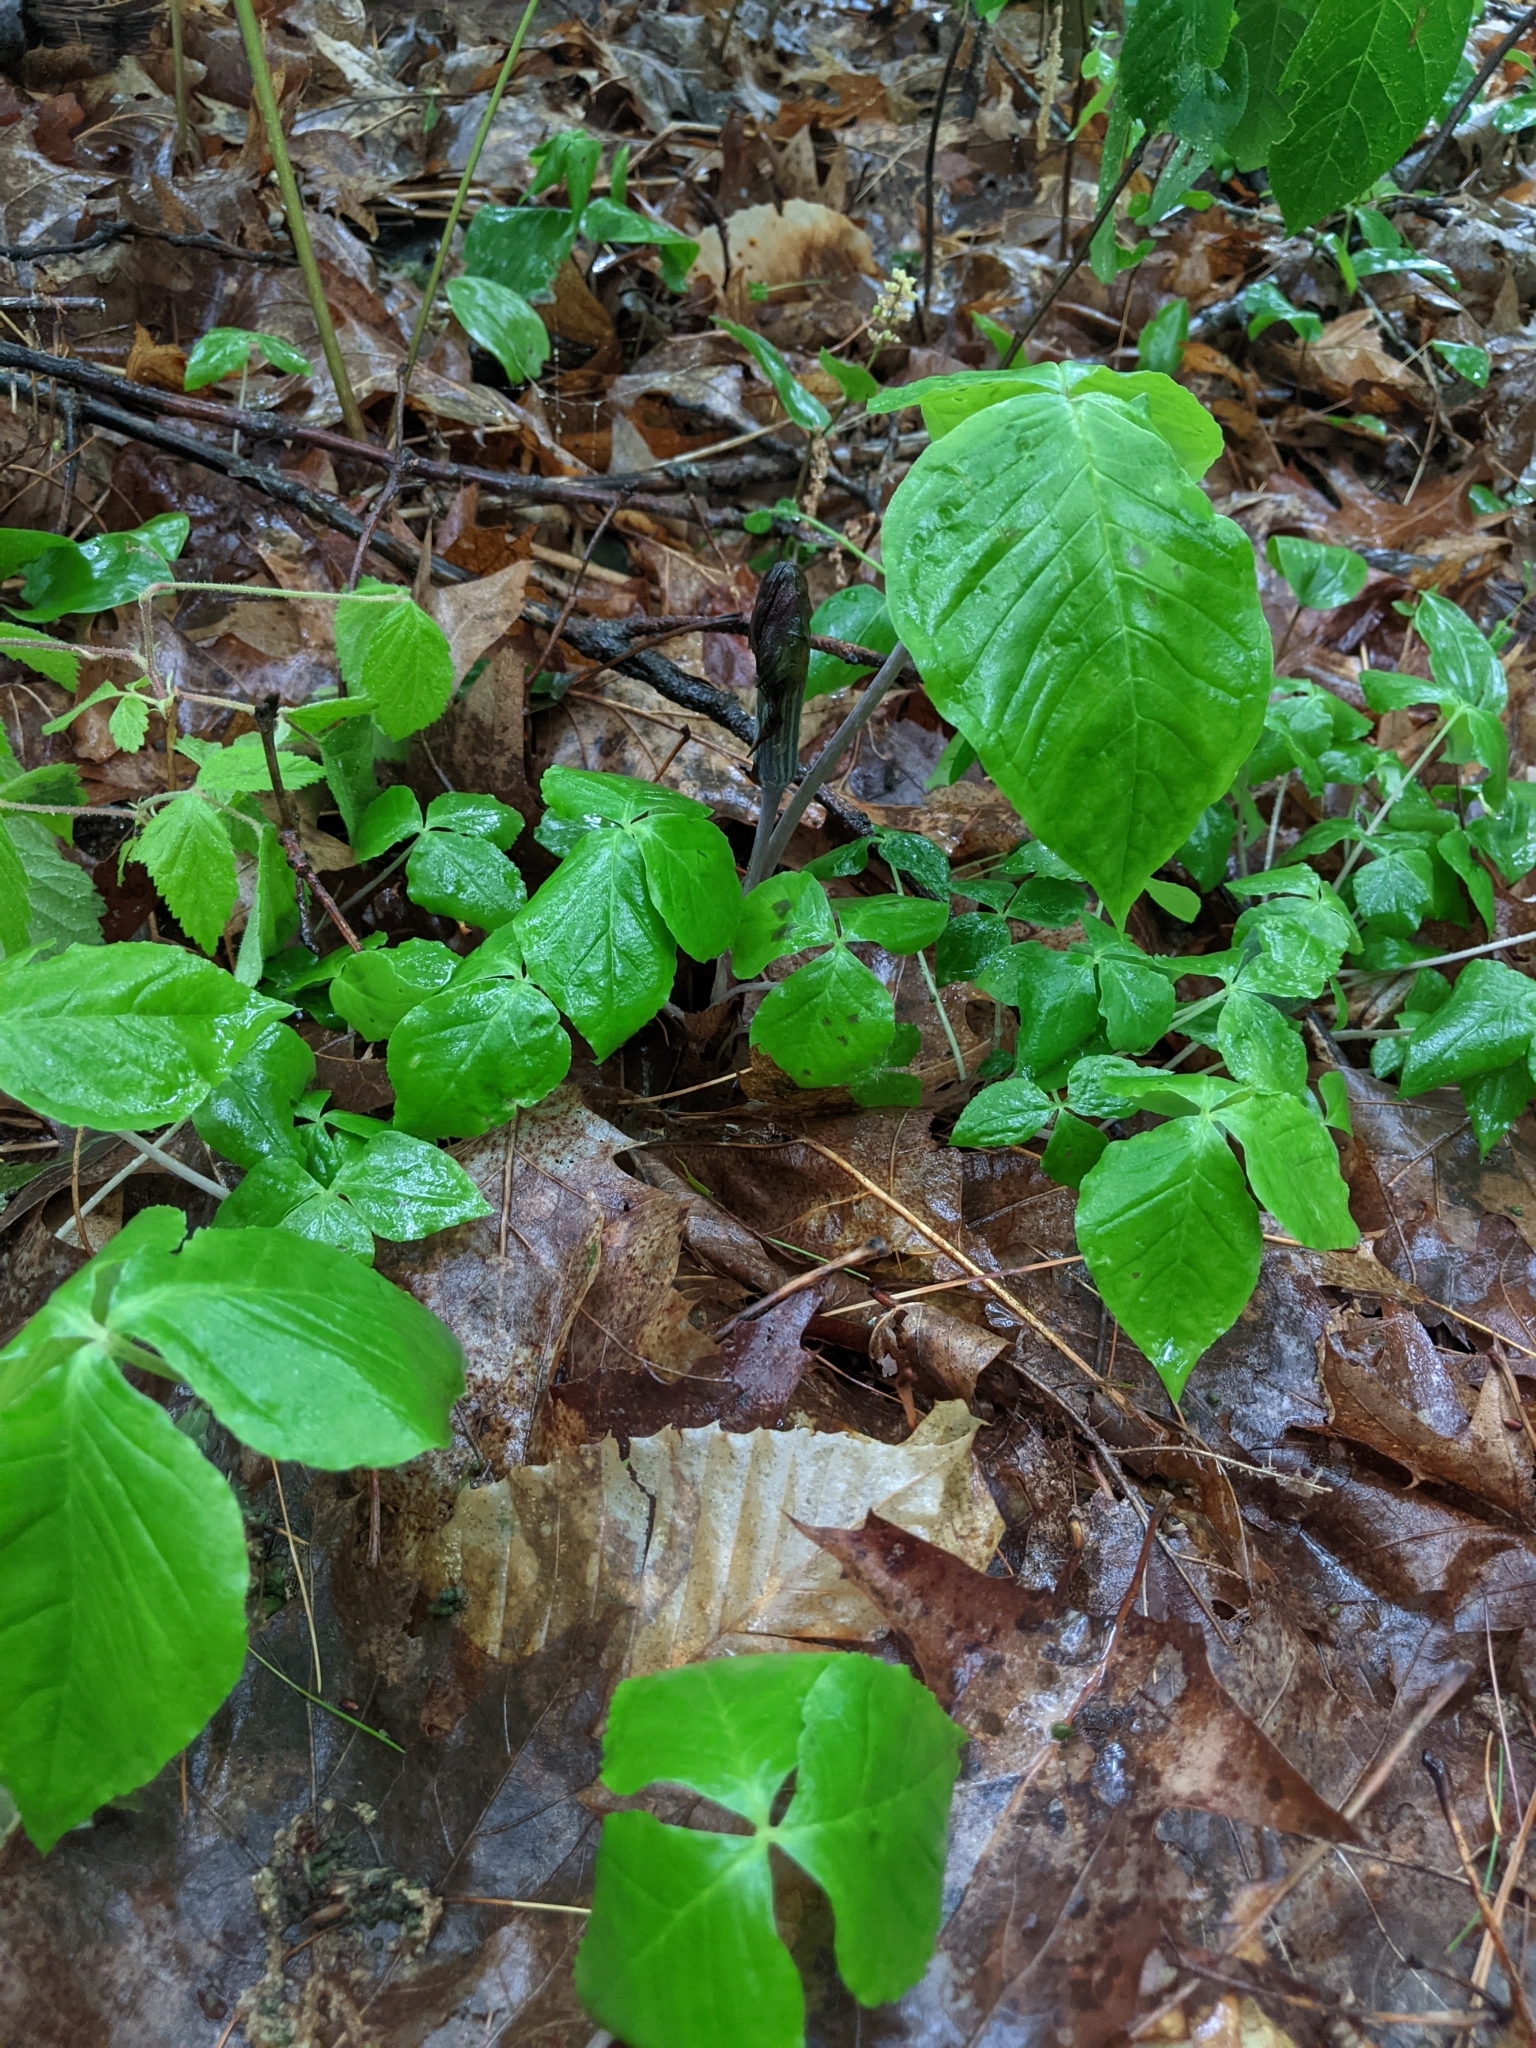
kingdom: Plantae
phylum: Tracheophyta
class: Liliopsida
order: Alismatales
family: Araceae
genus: Arisaema
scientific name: Arisaema triphyllum
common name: Jack-in-the-pulpit
